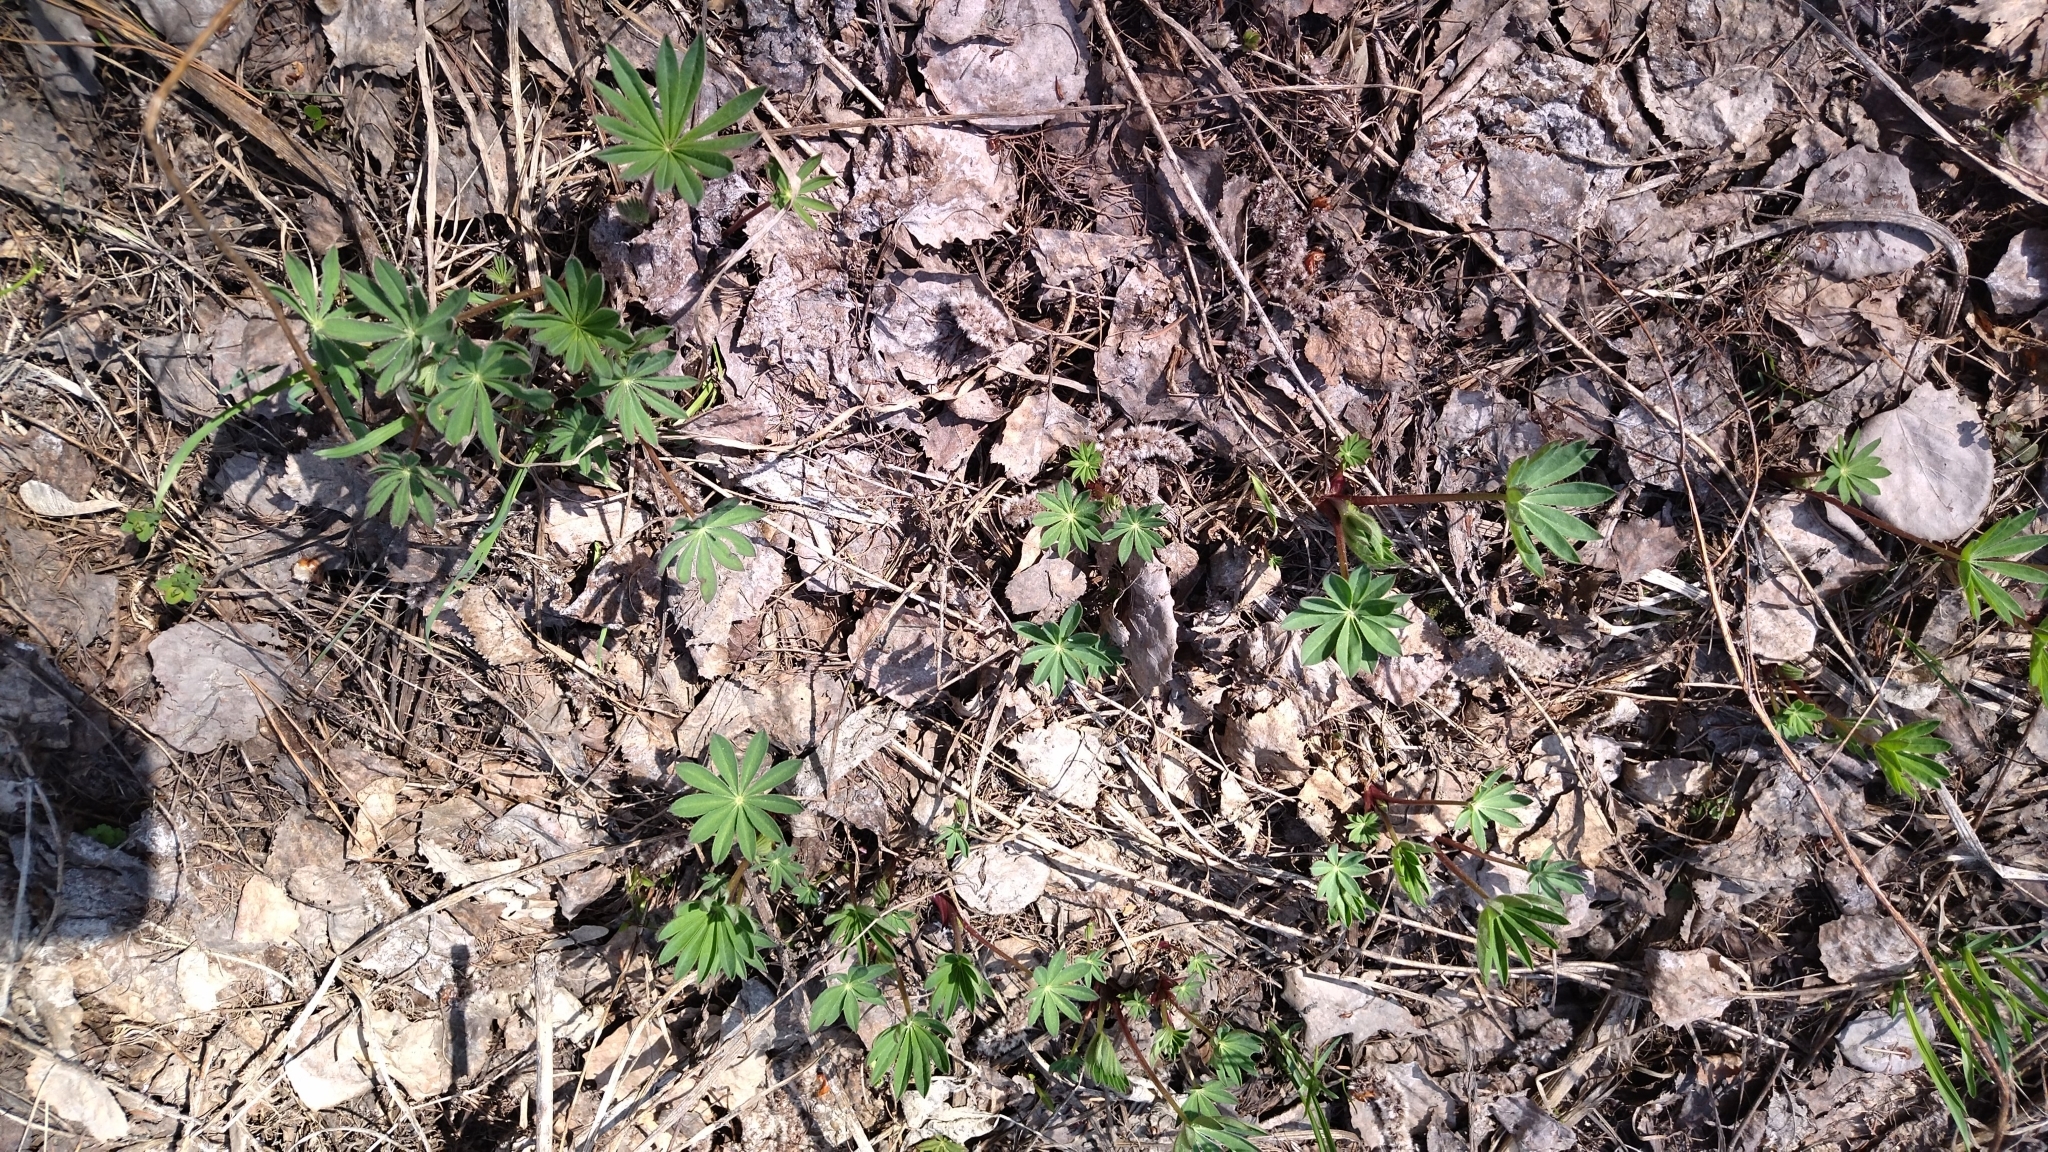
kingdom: Plantae
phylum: Tracheophyta
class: Magnoliopsida
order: Fabales
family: Fabaceae
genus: Lupinus
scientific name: Lupinus polyphyllus
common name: Garden lupin
